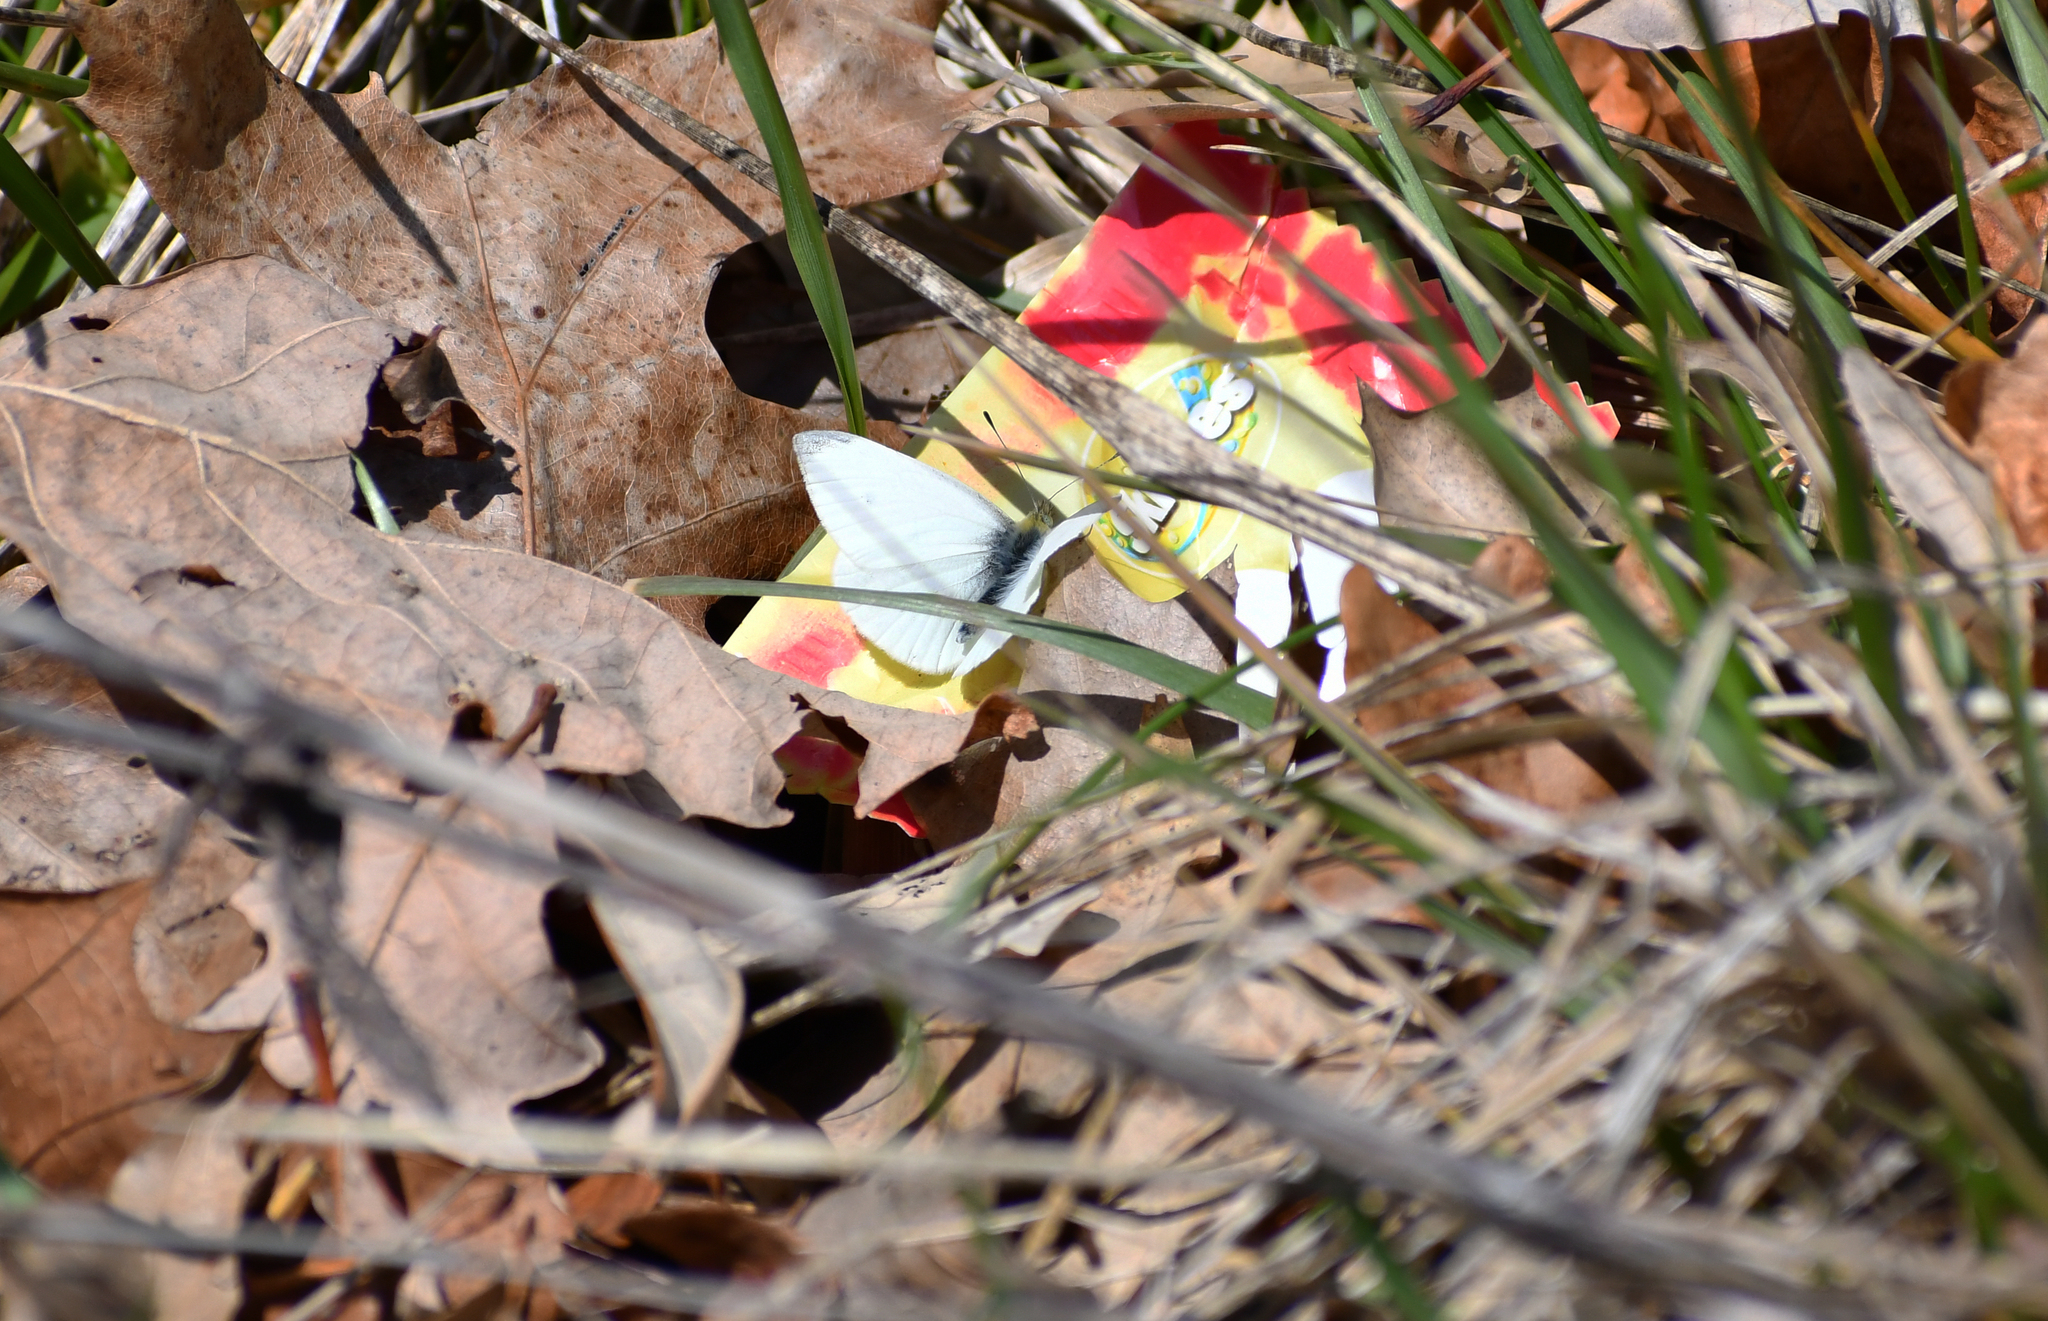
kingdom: Animalia
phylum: Arthropoda
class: Insecta
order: Lepidoptera
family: Pieridae
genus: Pieris
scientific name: Pieris virginiensis
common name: West virginia white
